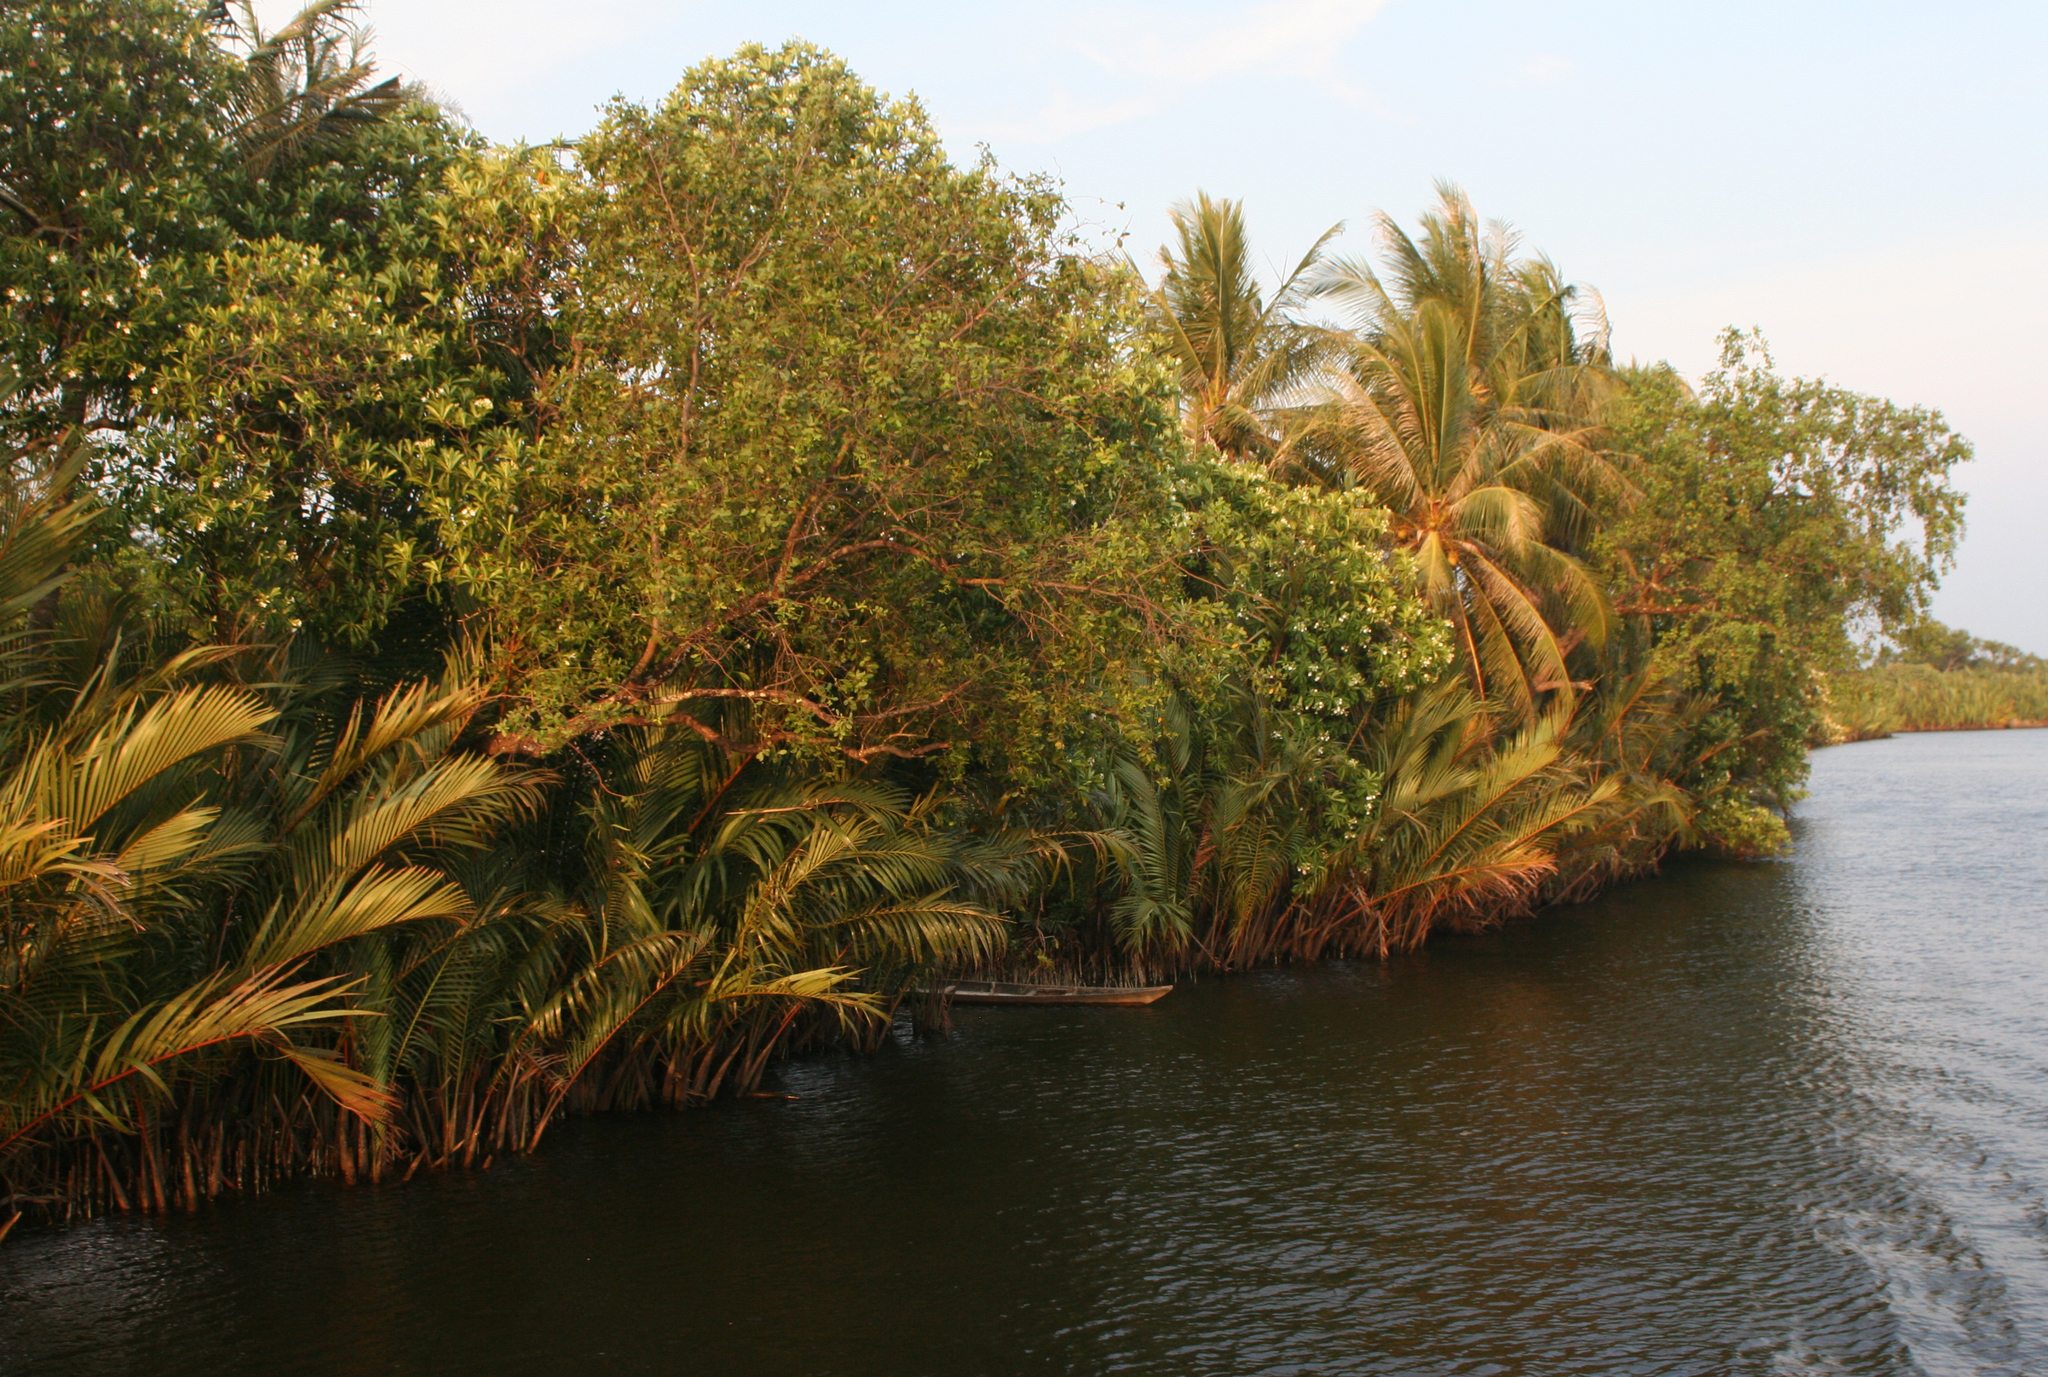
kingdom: Plantae
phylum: Tracheophyta
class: Liliopsida
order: Arecales
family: Arecaceae
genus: Nypa
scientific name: Nypa fruticans
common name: Mangrove palm
